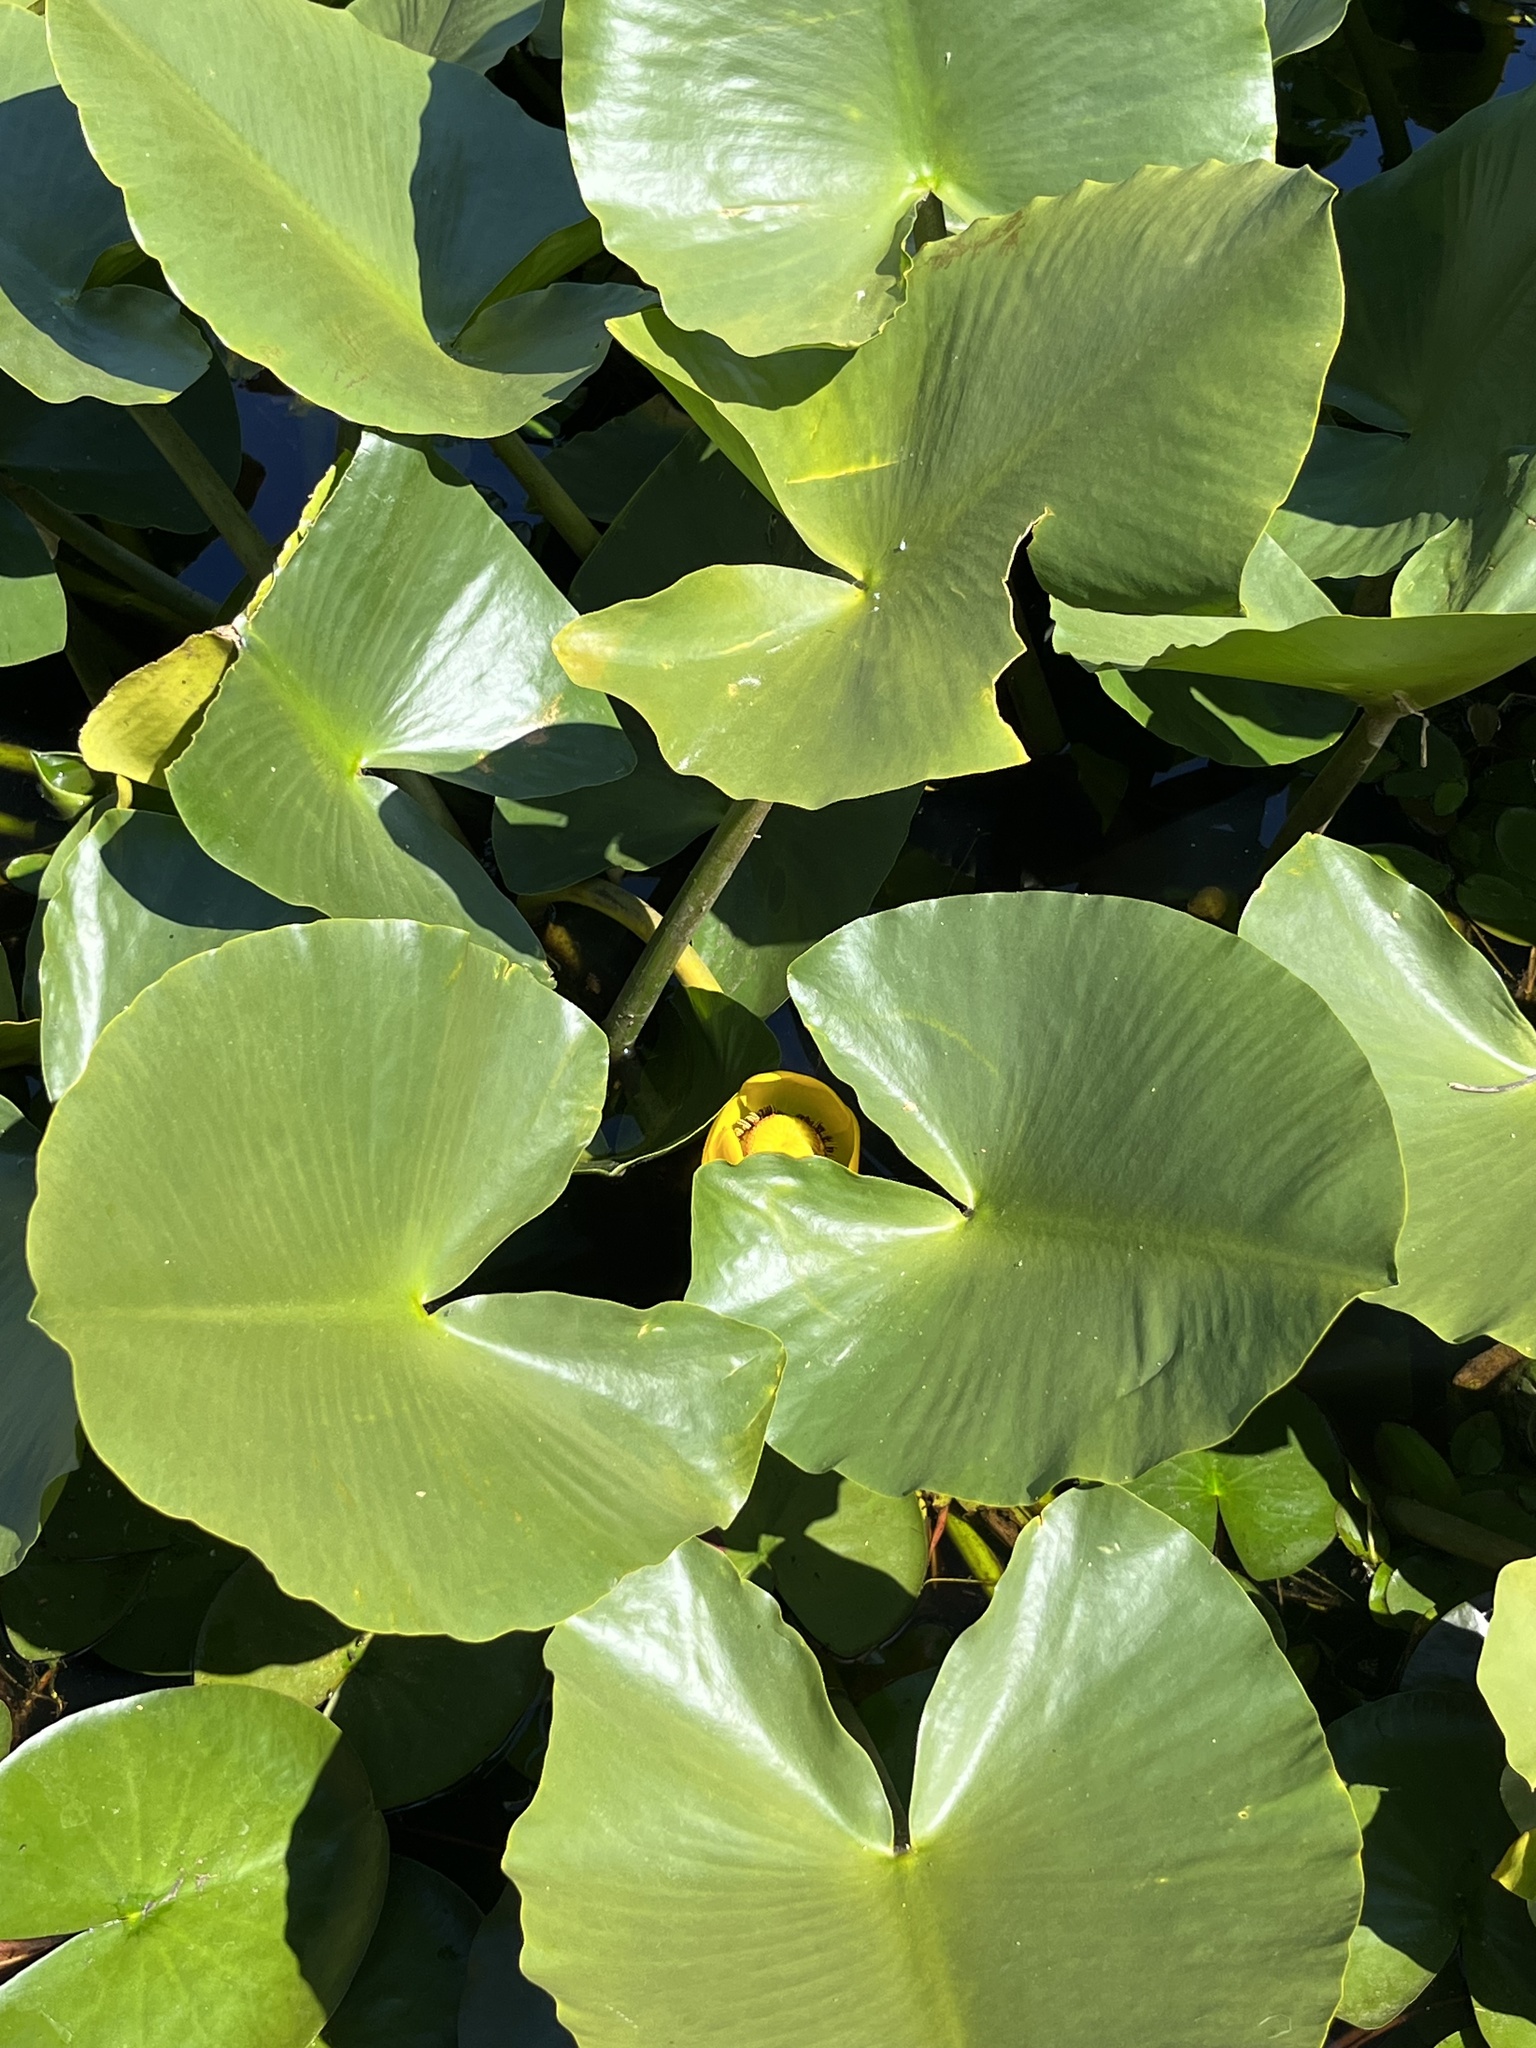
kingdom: Plantae
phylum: Tracheophyta
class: Magnoliopsida
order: Nymphaeales
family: Nymphaeaceae
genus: Nuphar
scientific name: Nuphar polysepala
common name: Rocky mountain cow-lily
